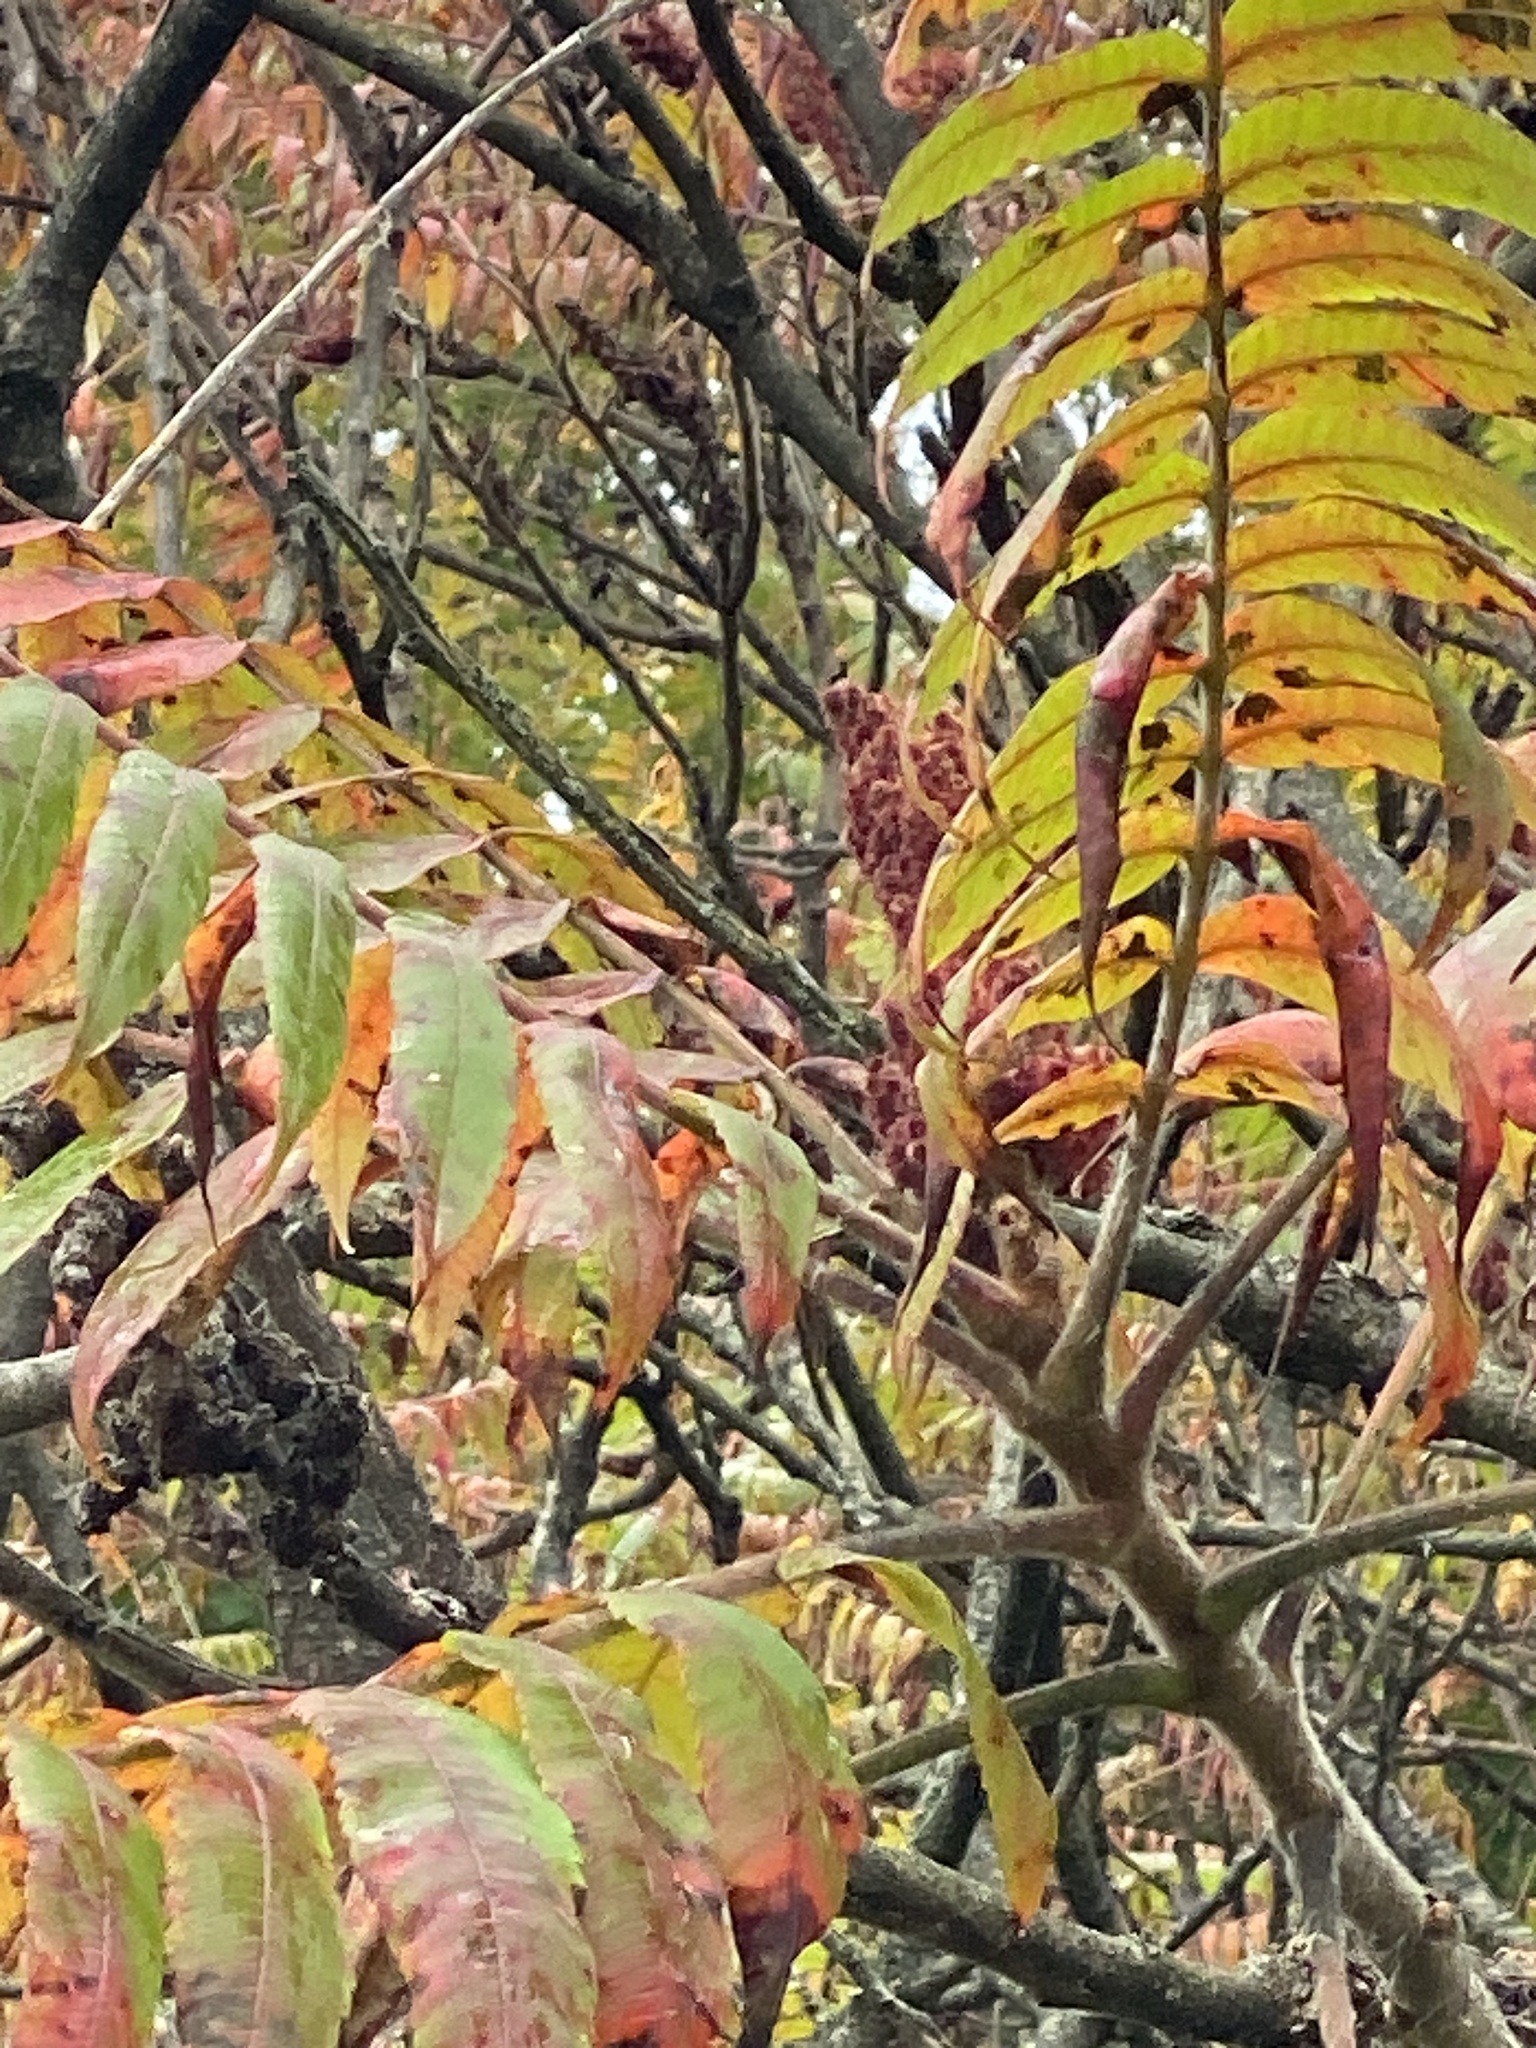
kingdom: Plantae
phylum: Tracheophyta
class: Magnoliopsida
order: Sapindales
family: Anacardiaceae
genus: Rhus
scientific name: Rhus typhina
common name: Staghorn sumac
